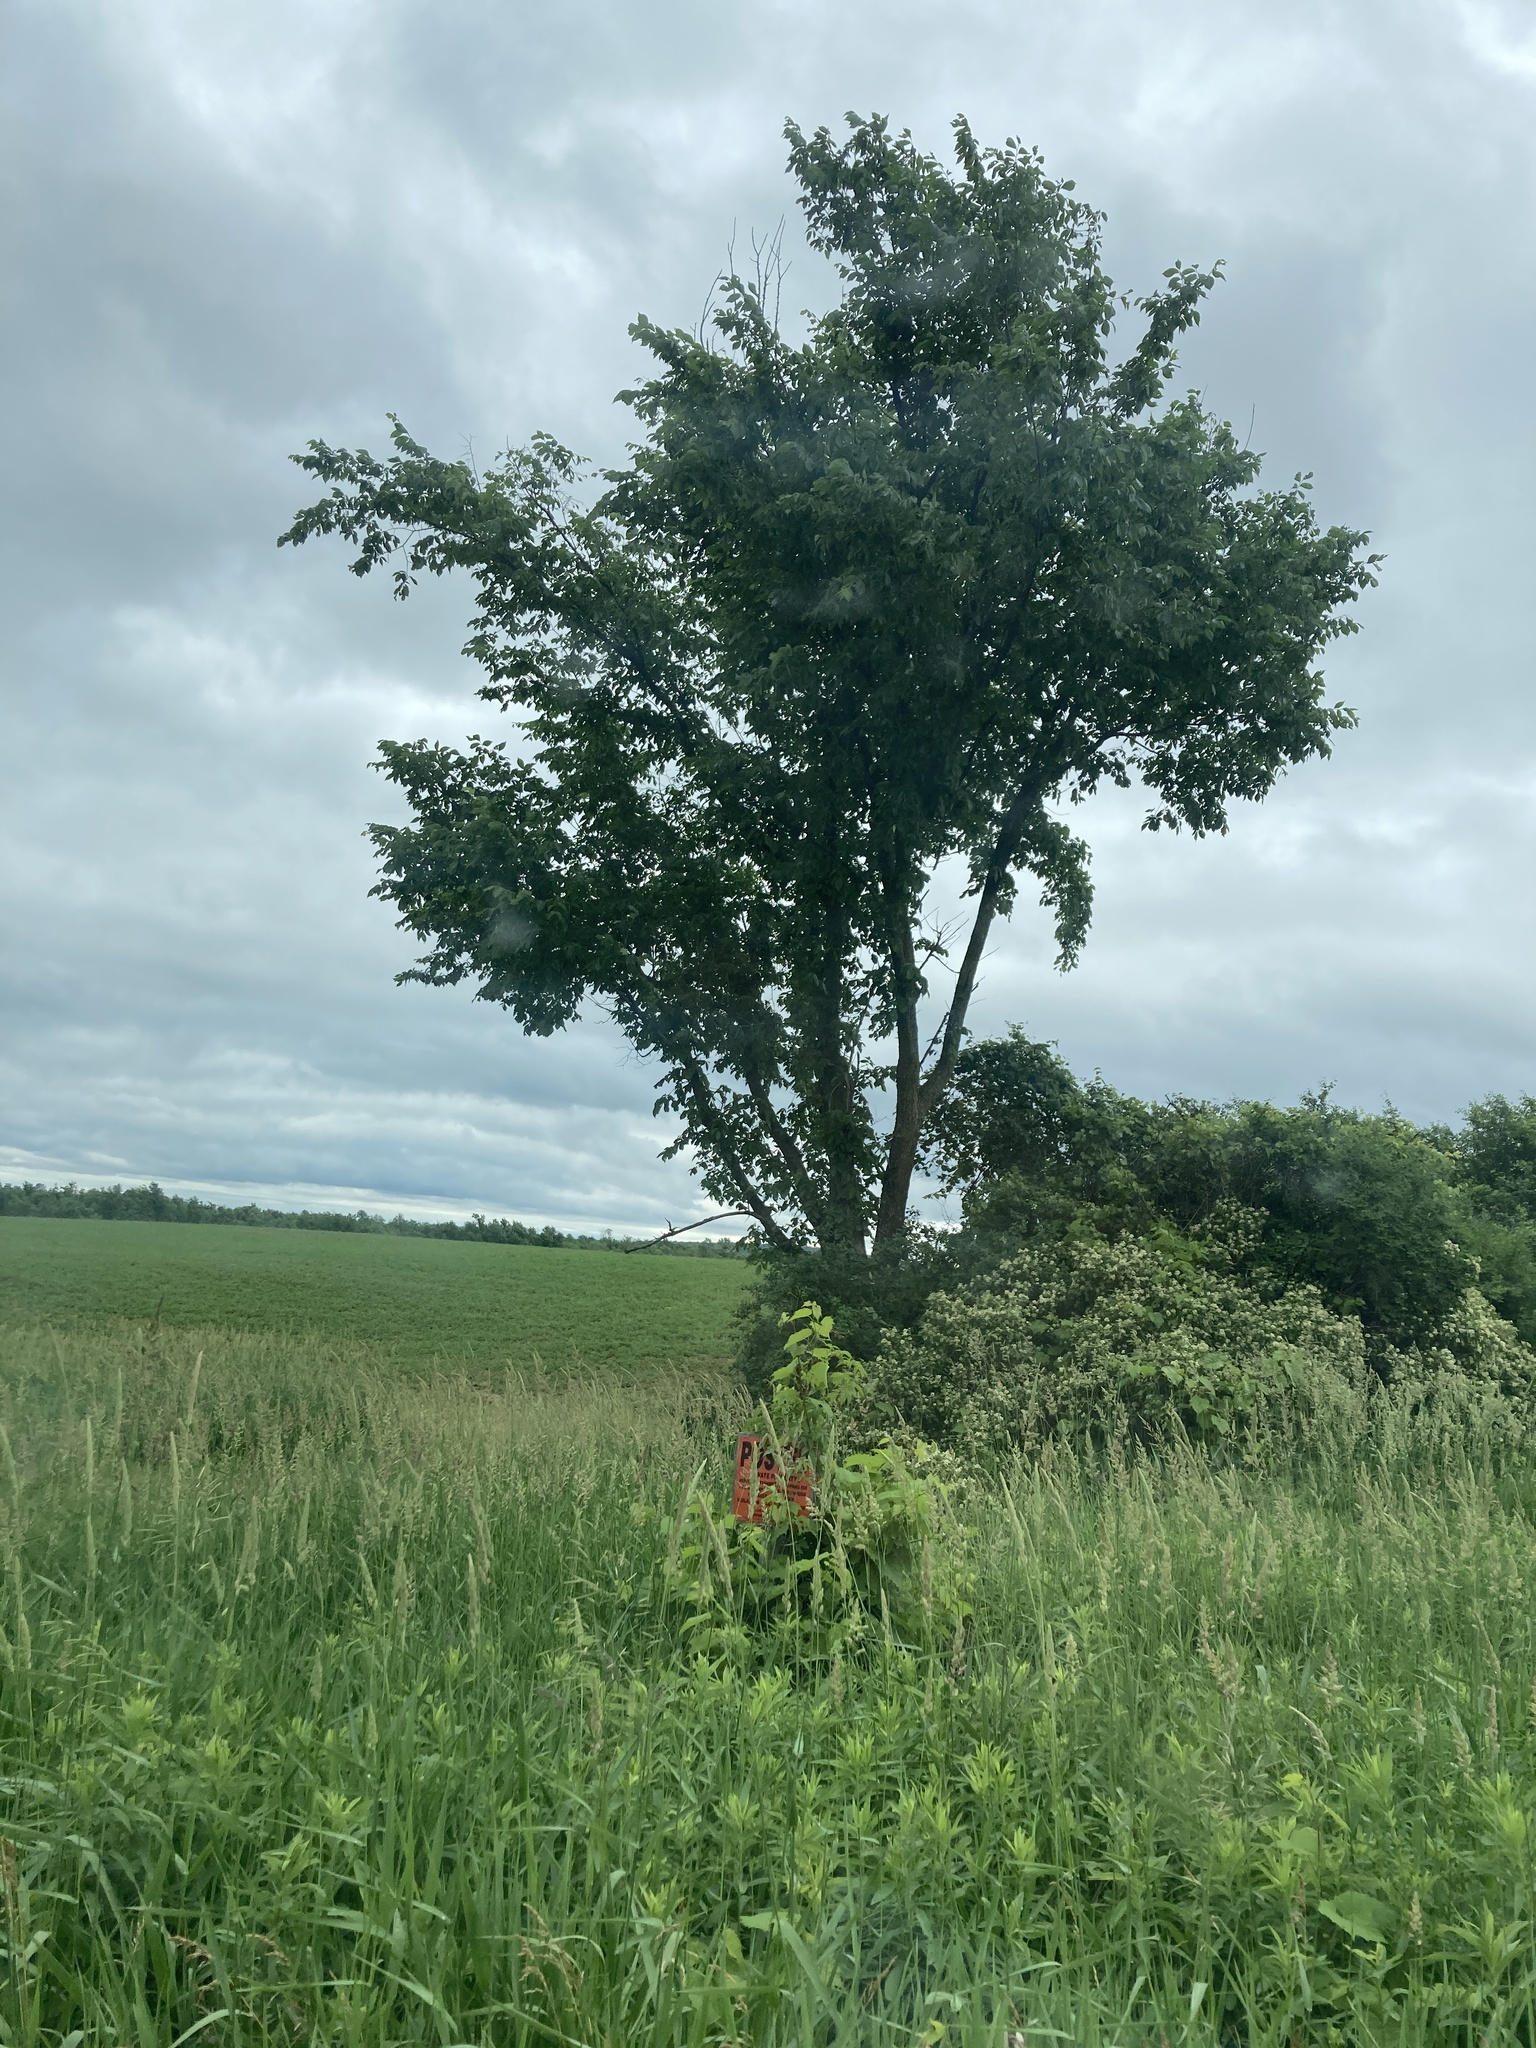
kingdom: Plantae
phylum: Tracheophyta
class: Magnoliopsida
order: Rosales
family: Ulmaceae
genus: Ulmus
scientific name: Ulmus americana
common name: American elm
